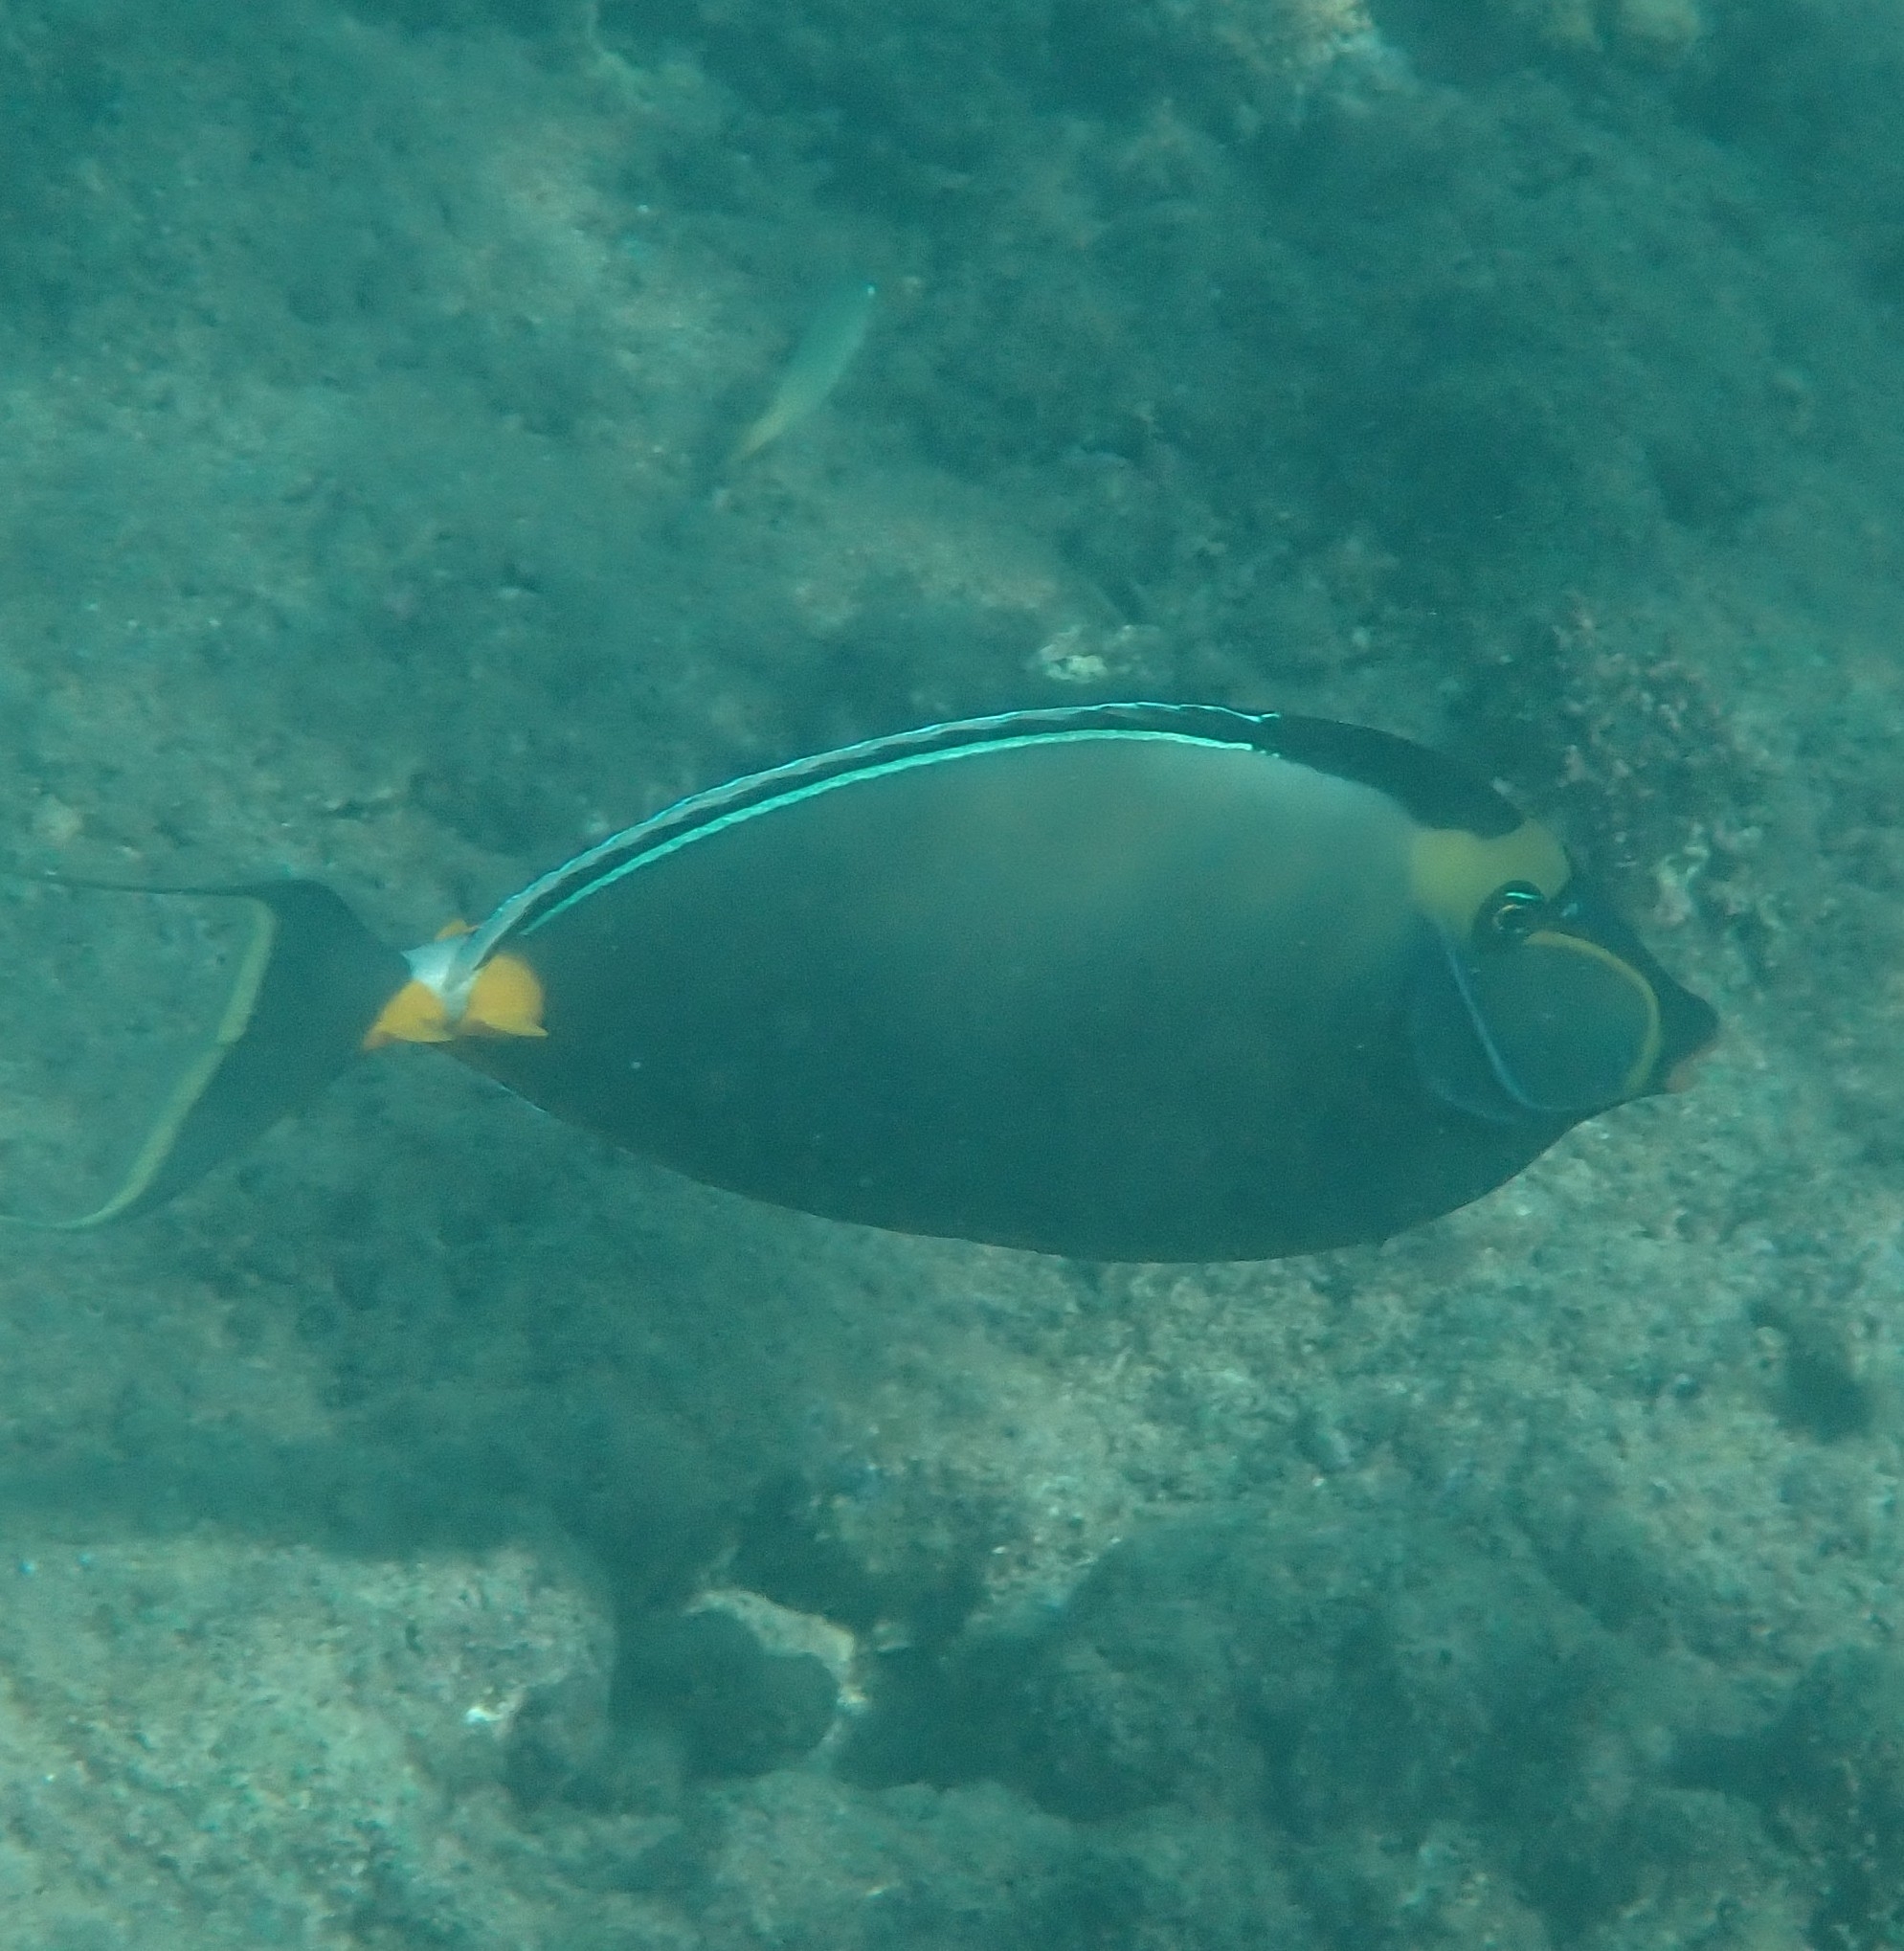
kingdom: Animalia
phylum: Chordata
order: Perciformes
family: Acanthuridae
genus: Naso
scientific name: Naso lituratus
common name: Orangespine unicornfish
